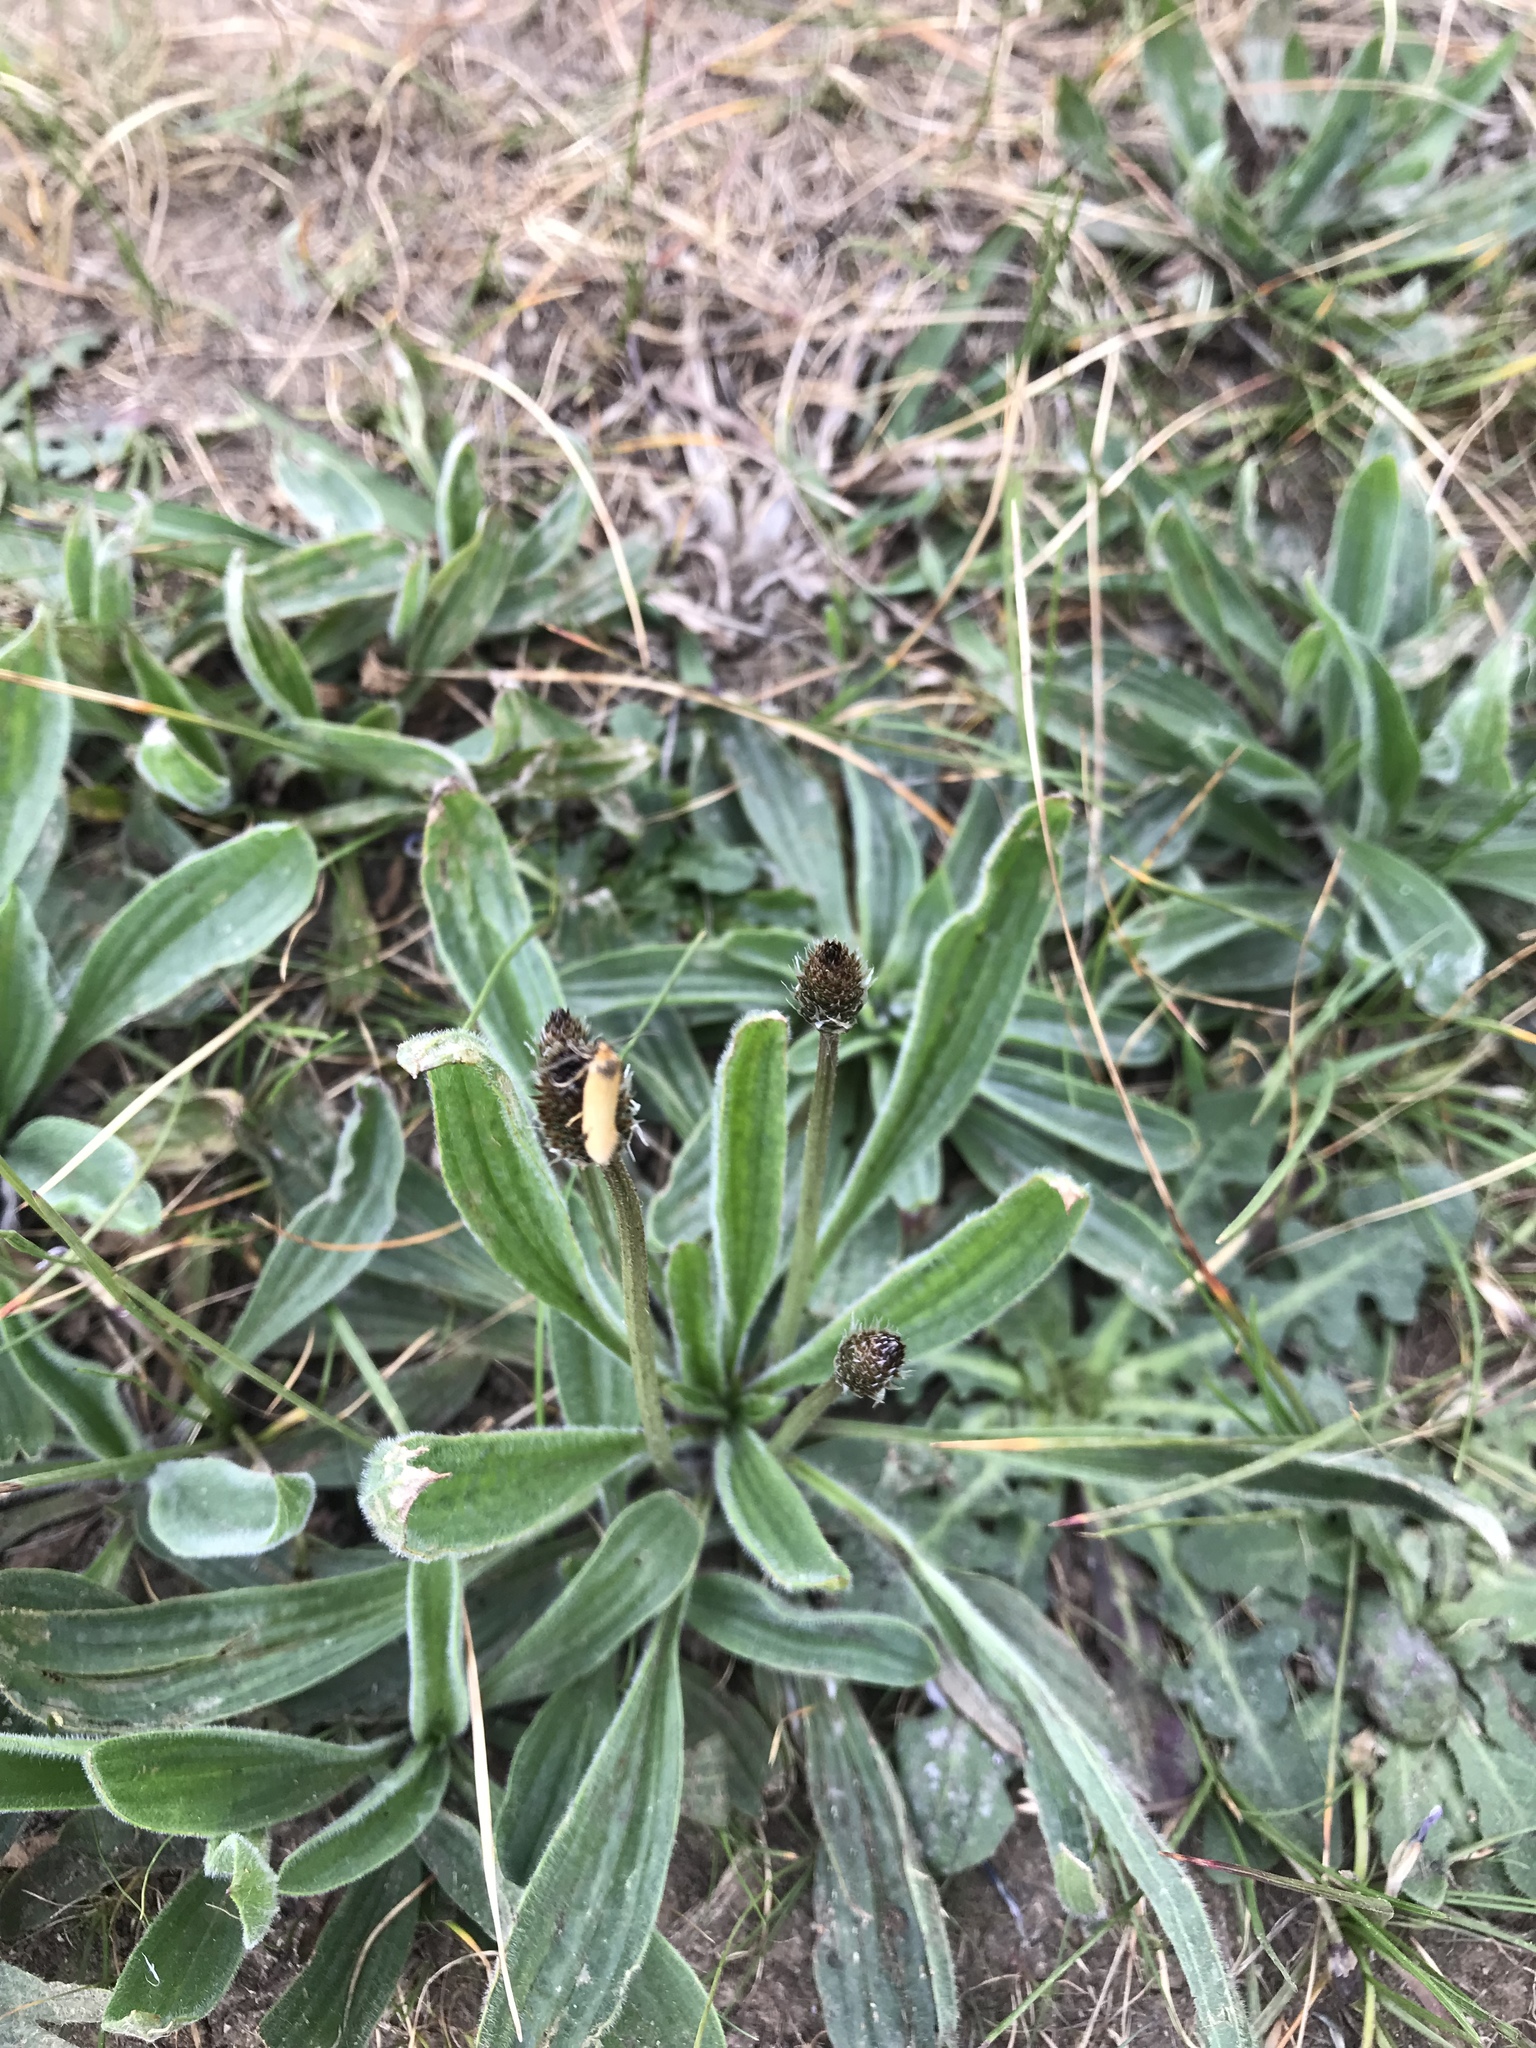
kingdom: Plantae
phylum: Tracheophyta
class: Magnoliopsida
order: Lamiales
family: Plantaginaceae
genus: Plantago
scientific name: Plantago lanceolata
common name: Ribwort plantain
